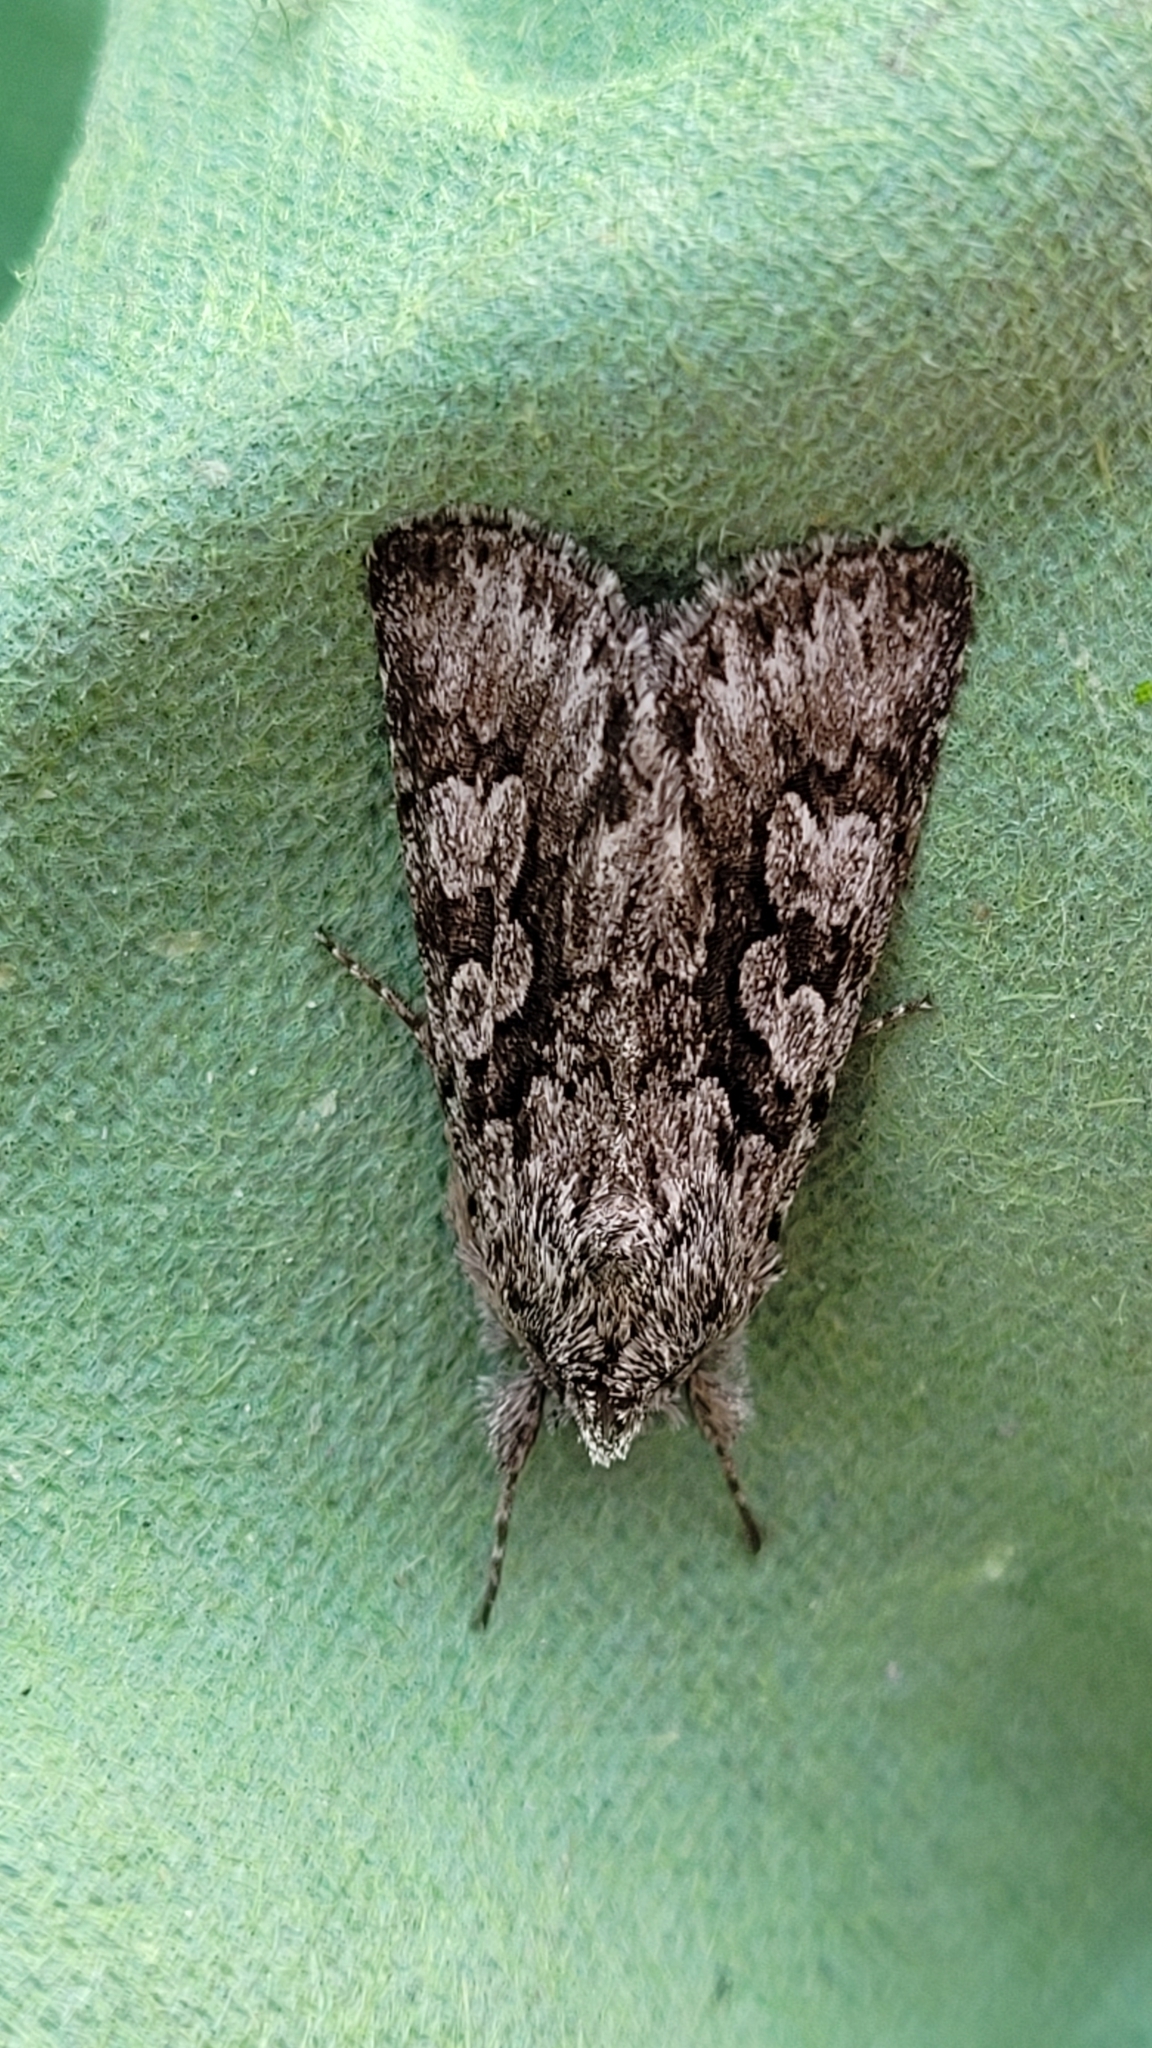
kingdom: Animalia
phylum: Arthropoda
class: Insecta
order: Lepidoptera
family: Noctuidae
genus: Xylocampa
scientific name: Xylocampa areola
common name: Early grey
